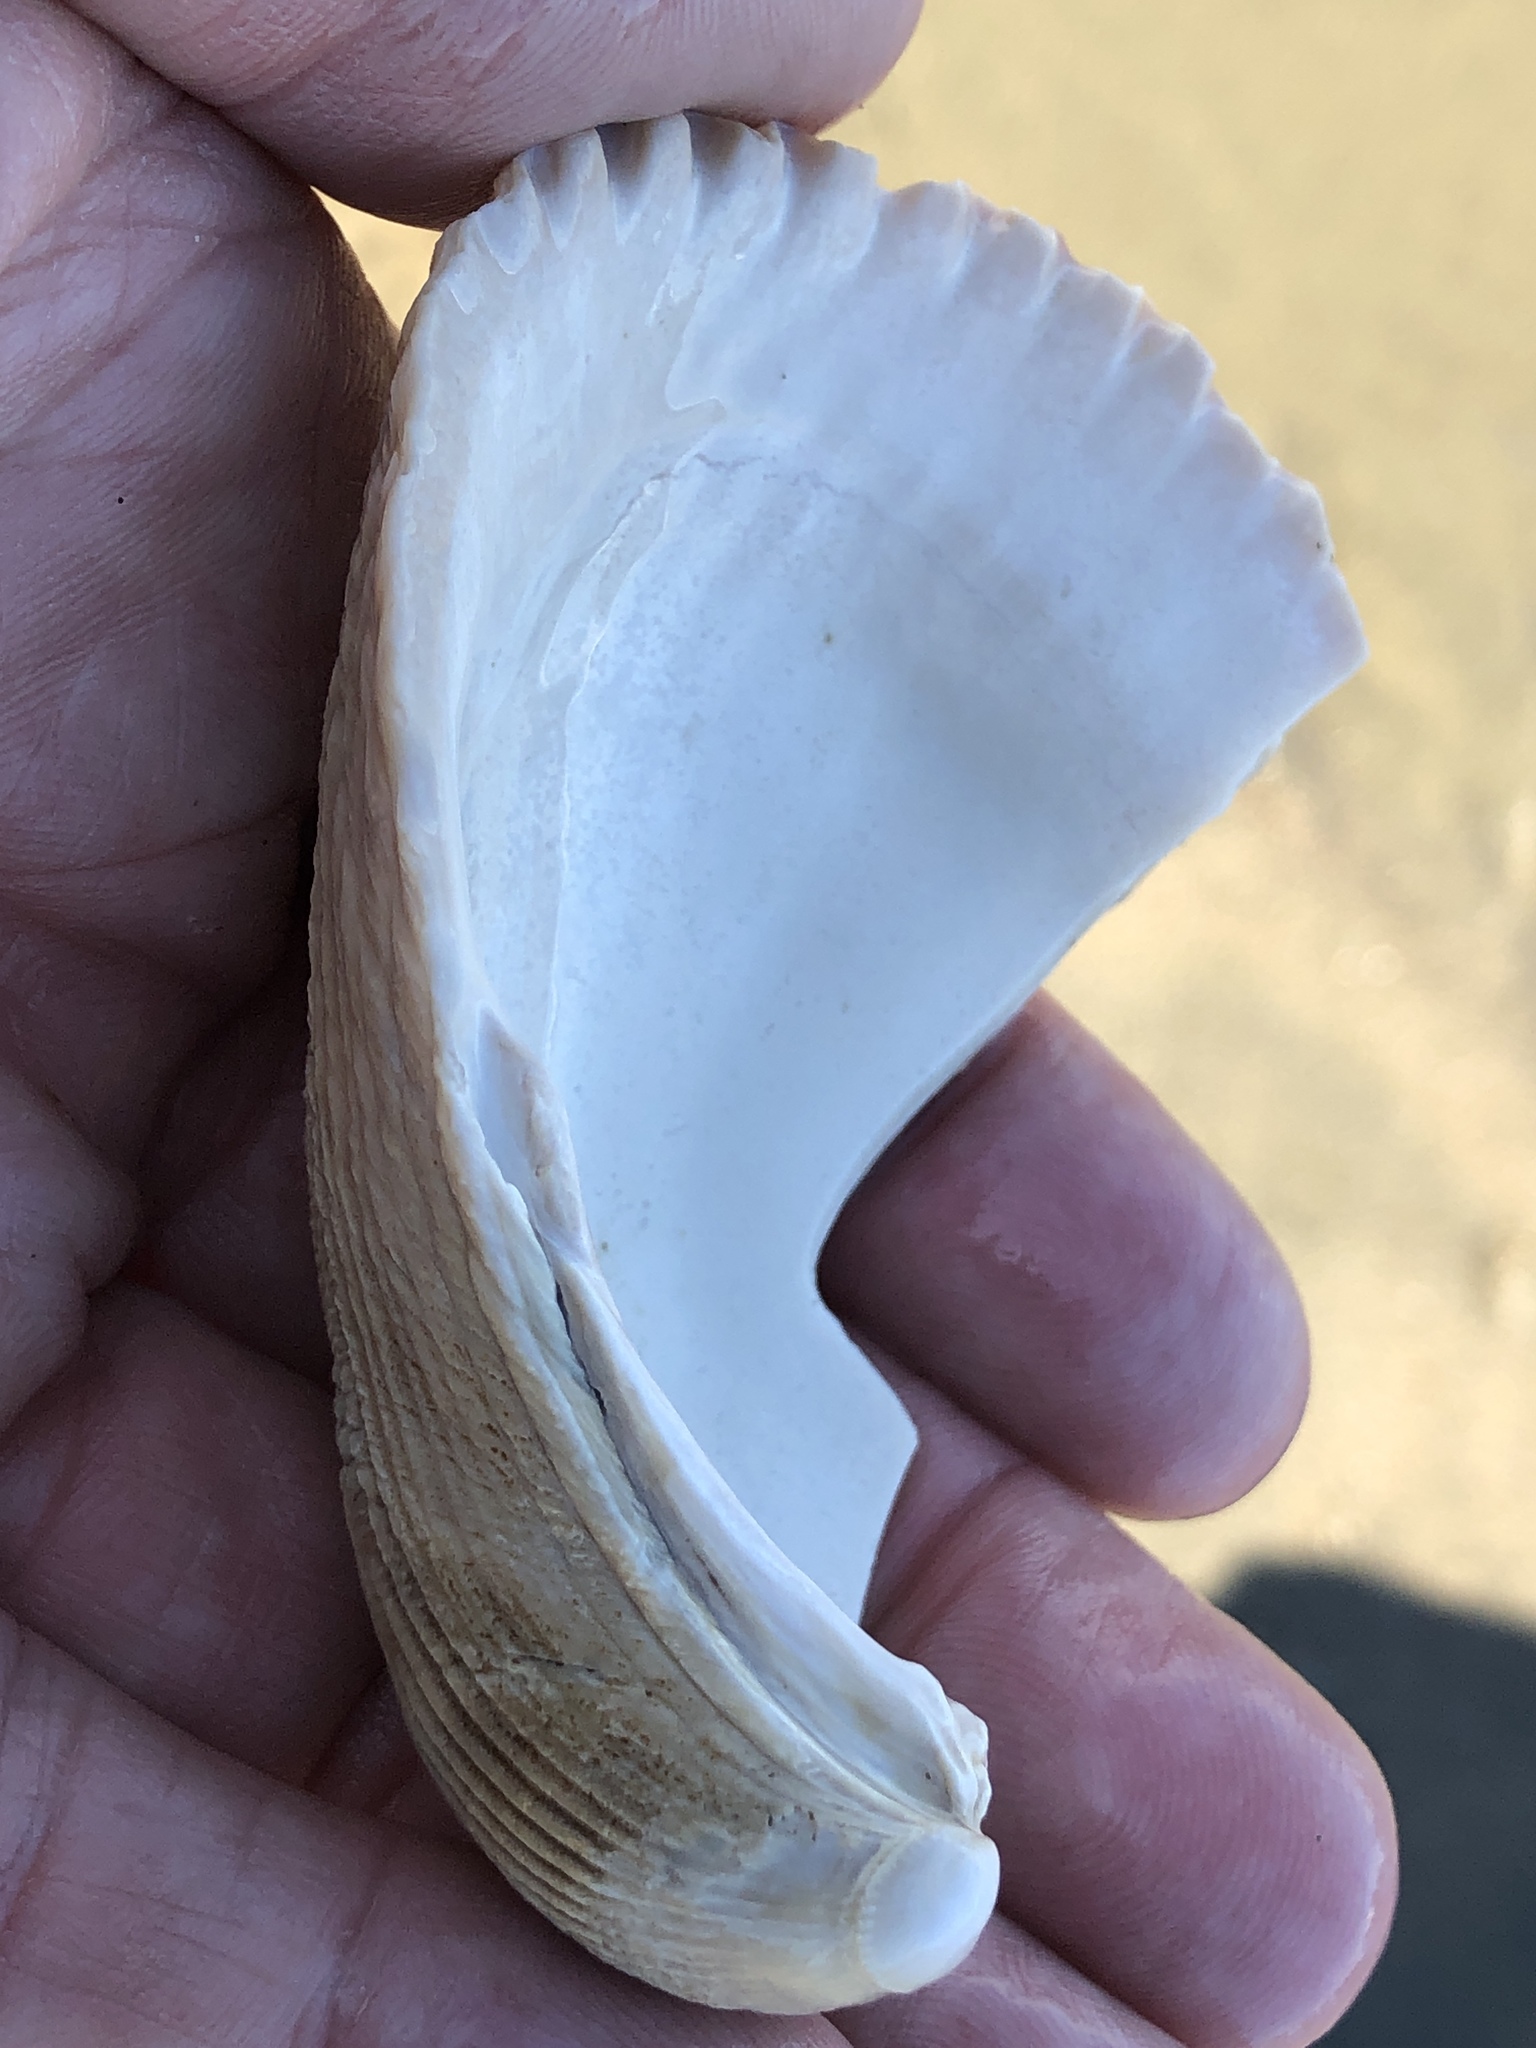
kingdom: Animalia
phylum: Mollusca
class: Bivalvia
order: Cardiida
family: Cardiidae
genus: Clinocardium
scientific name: Clinocardium nuttallii
